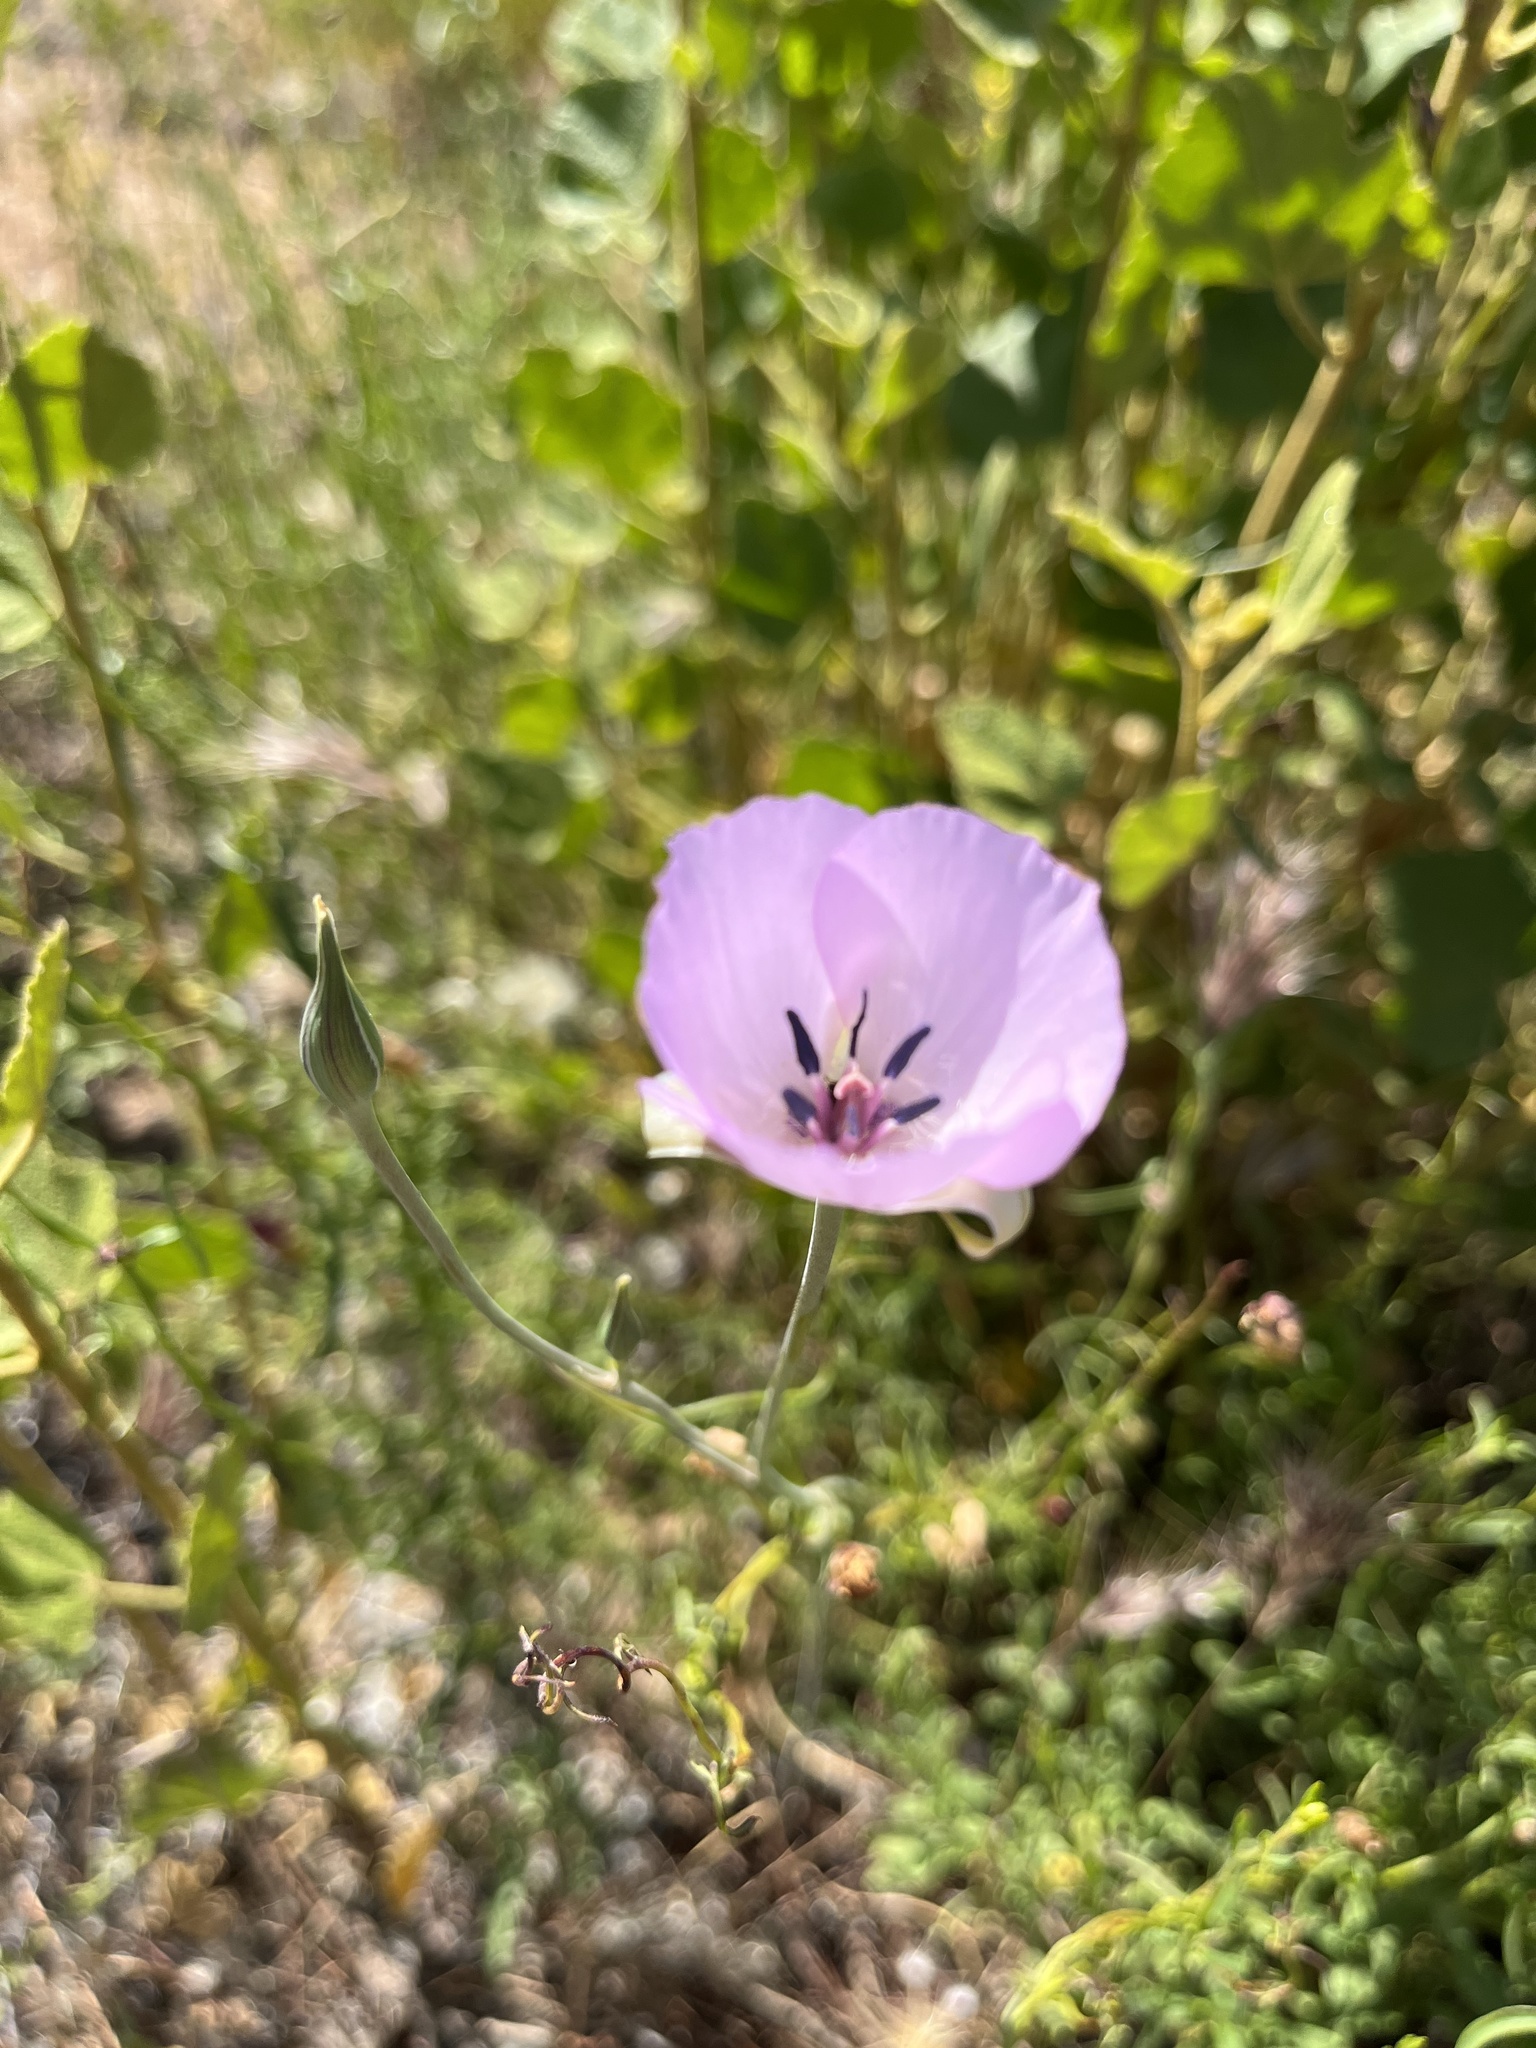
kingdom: Plantae
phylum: Tracheophyta
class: Liliopsida
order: Liliales
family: Liliaceae
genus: Calochortus
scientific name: Calochortus splendens
